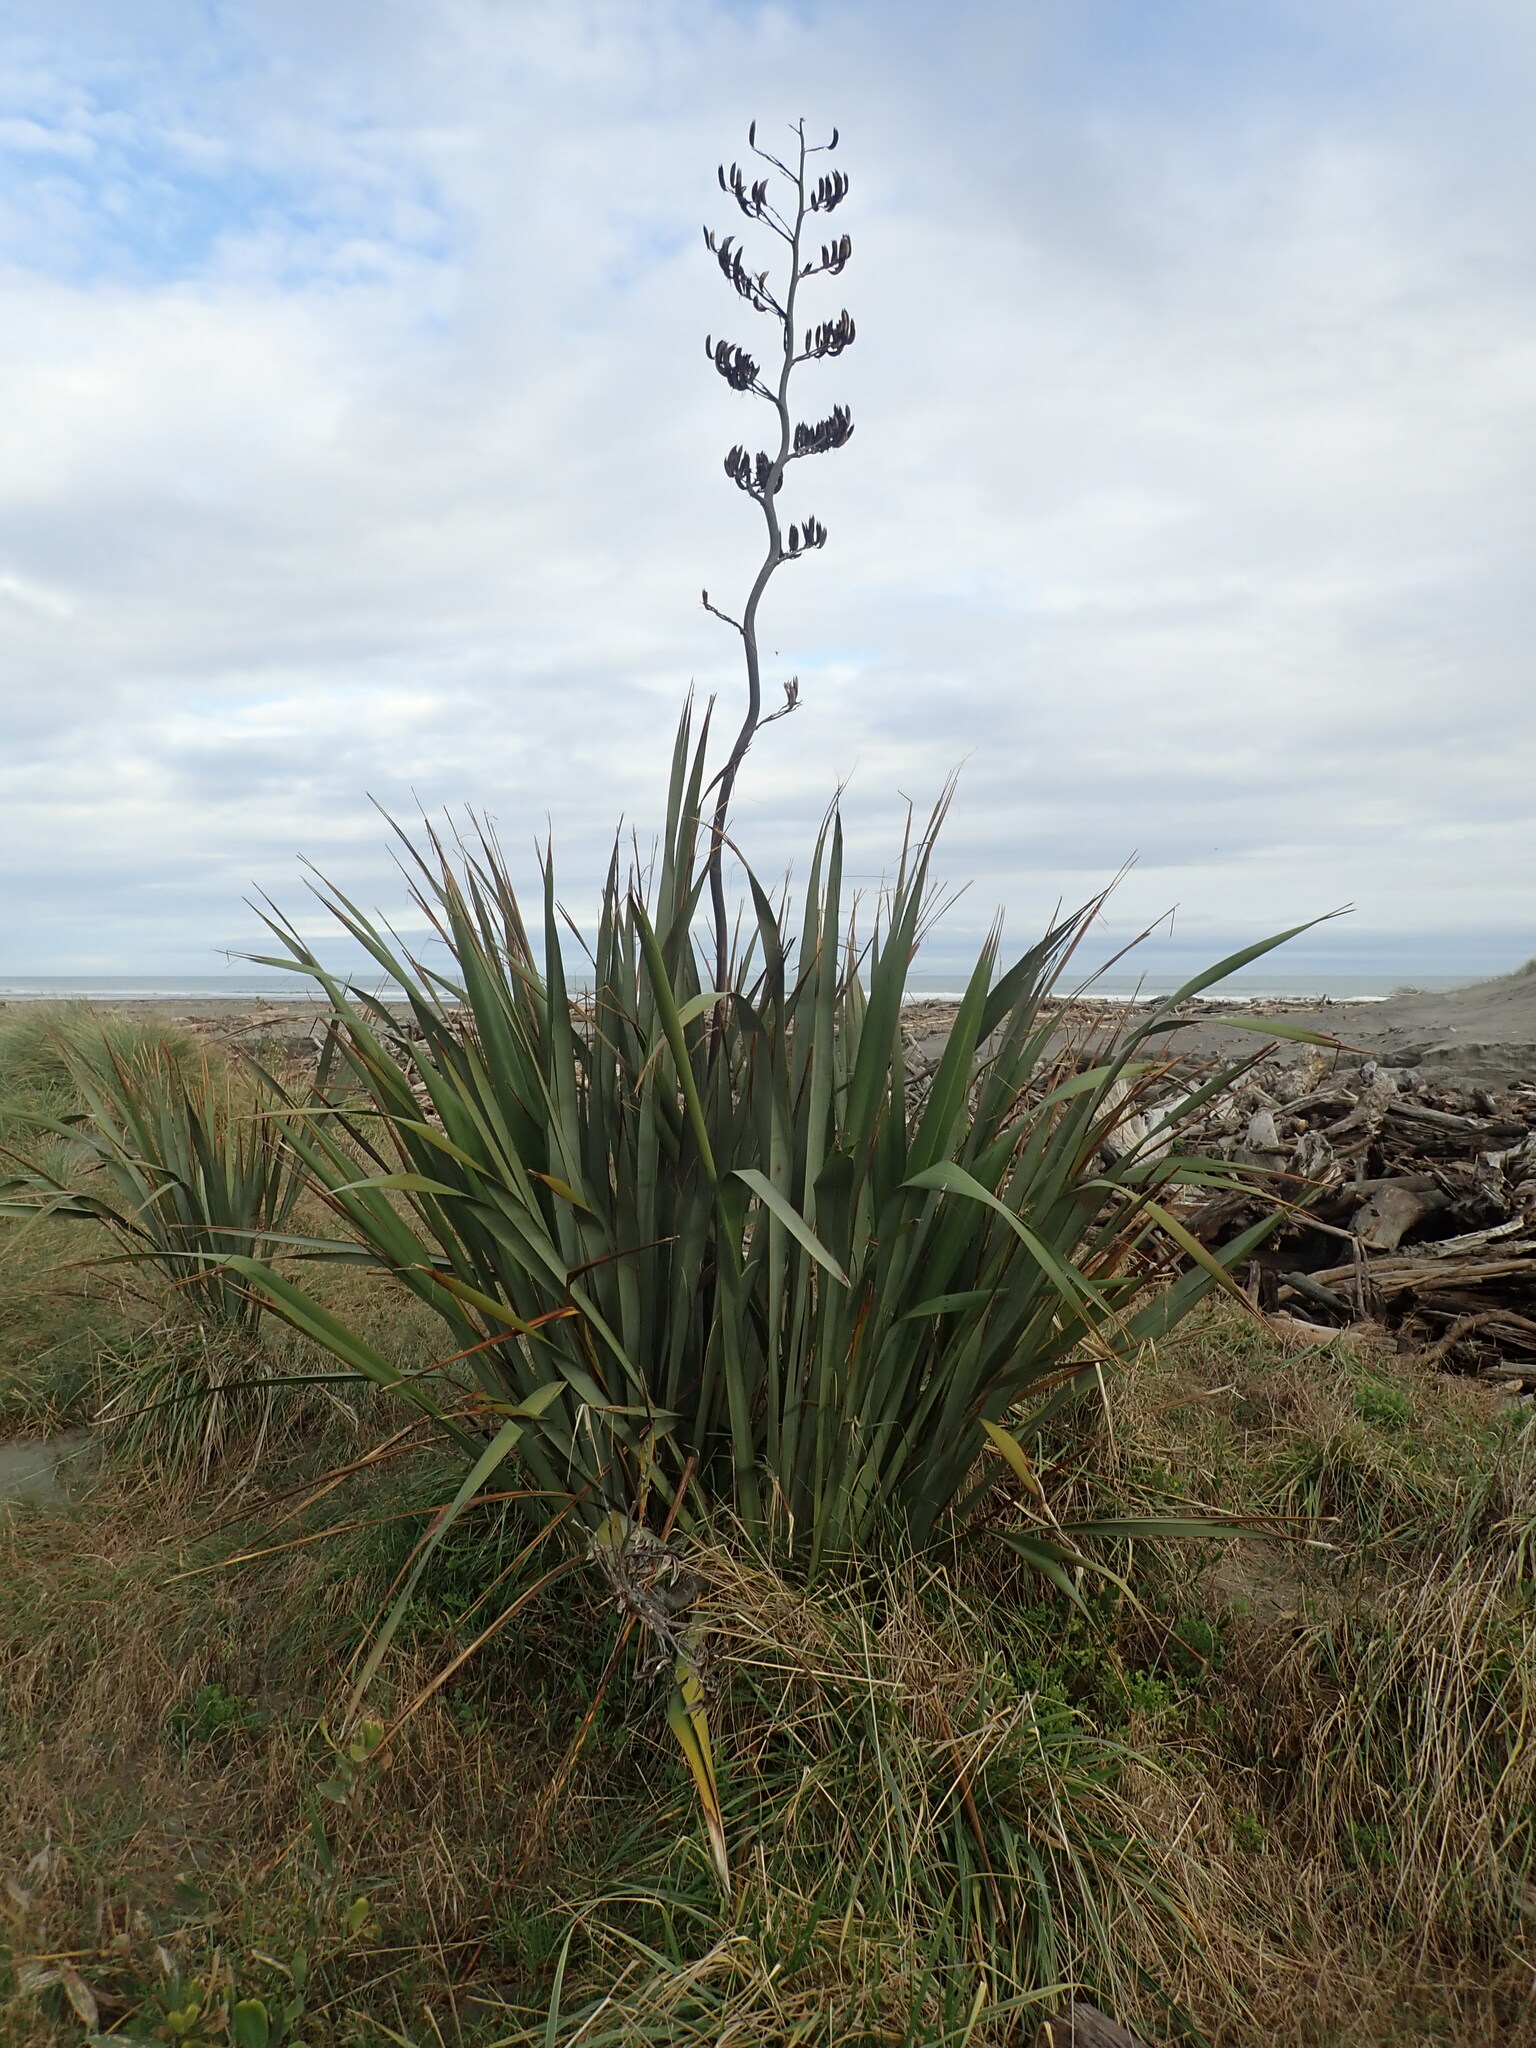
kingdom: Plantae
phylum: Tracheophyta
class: Liliopsida
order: Asparagales
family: Asphodelaceae
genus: Phormium
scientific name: Phormium tenax
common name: New zealand flax
